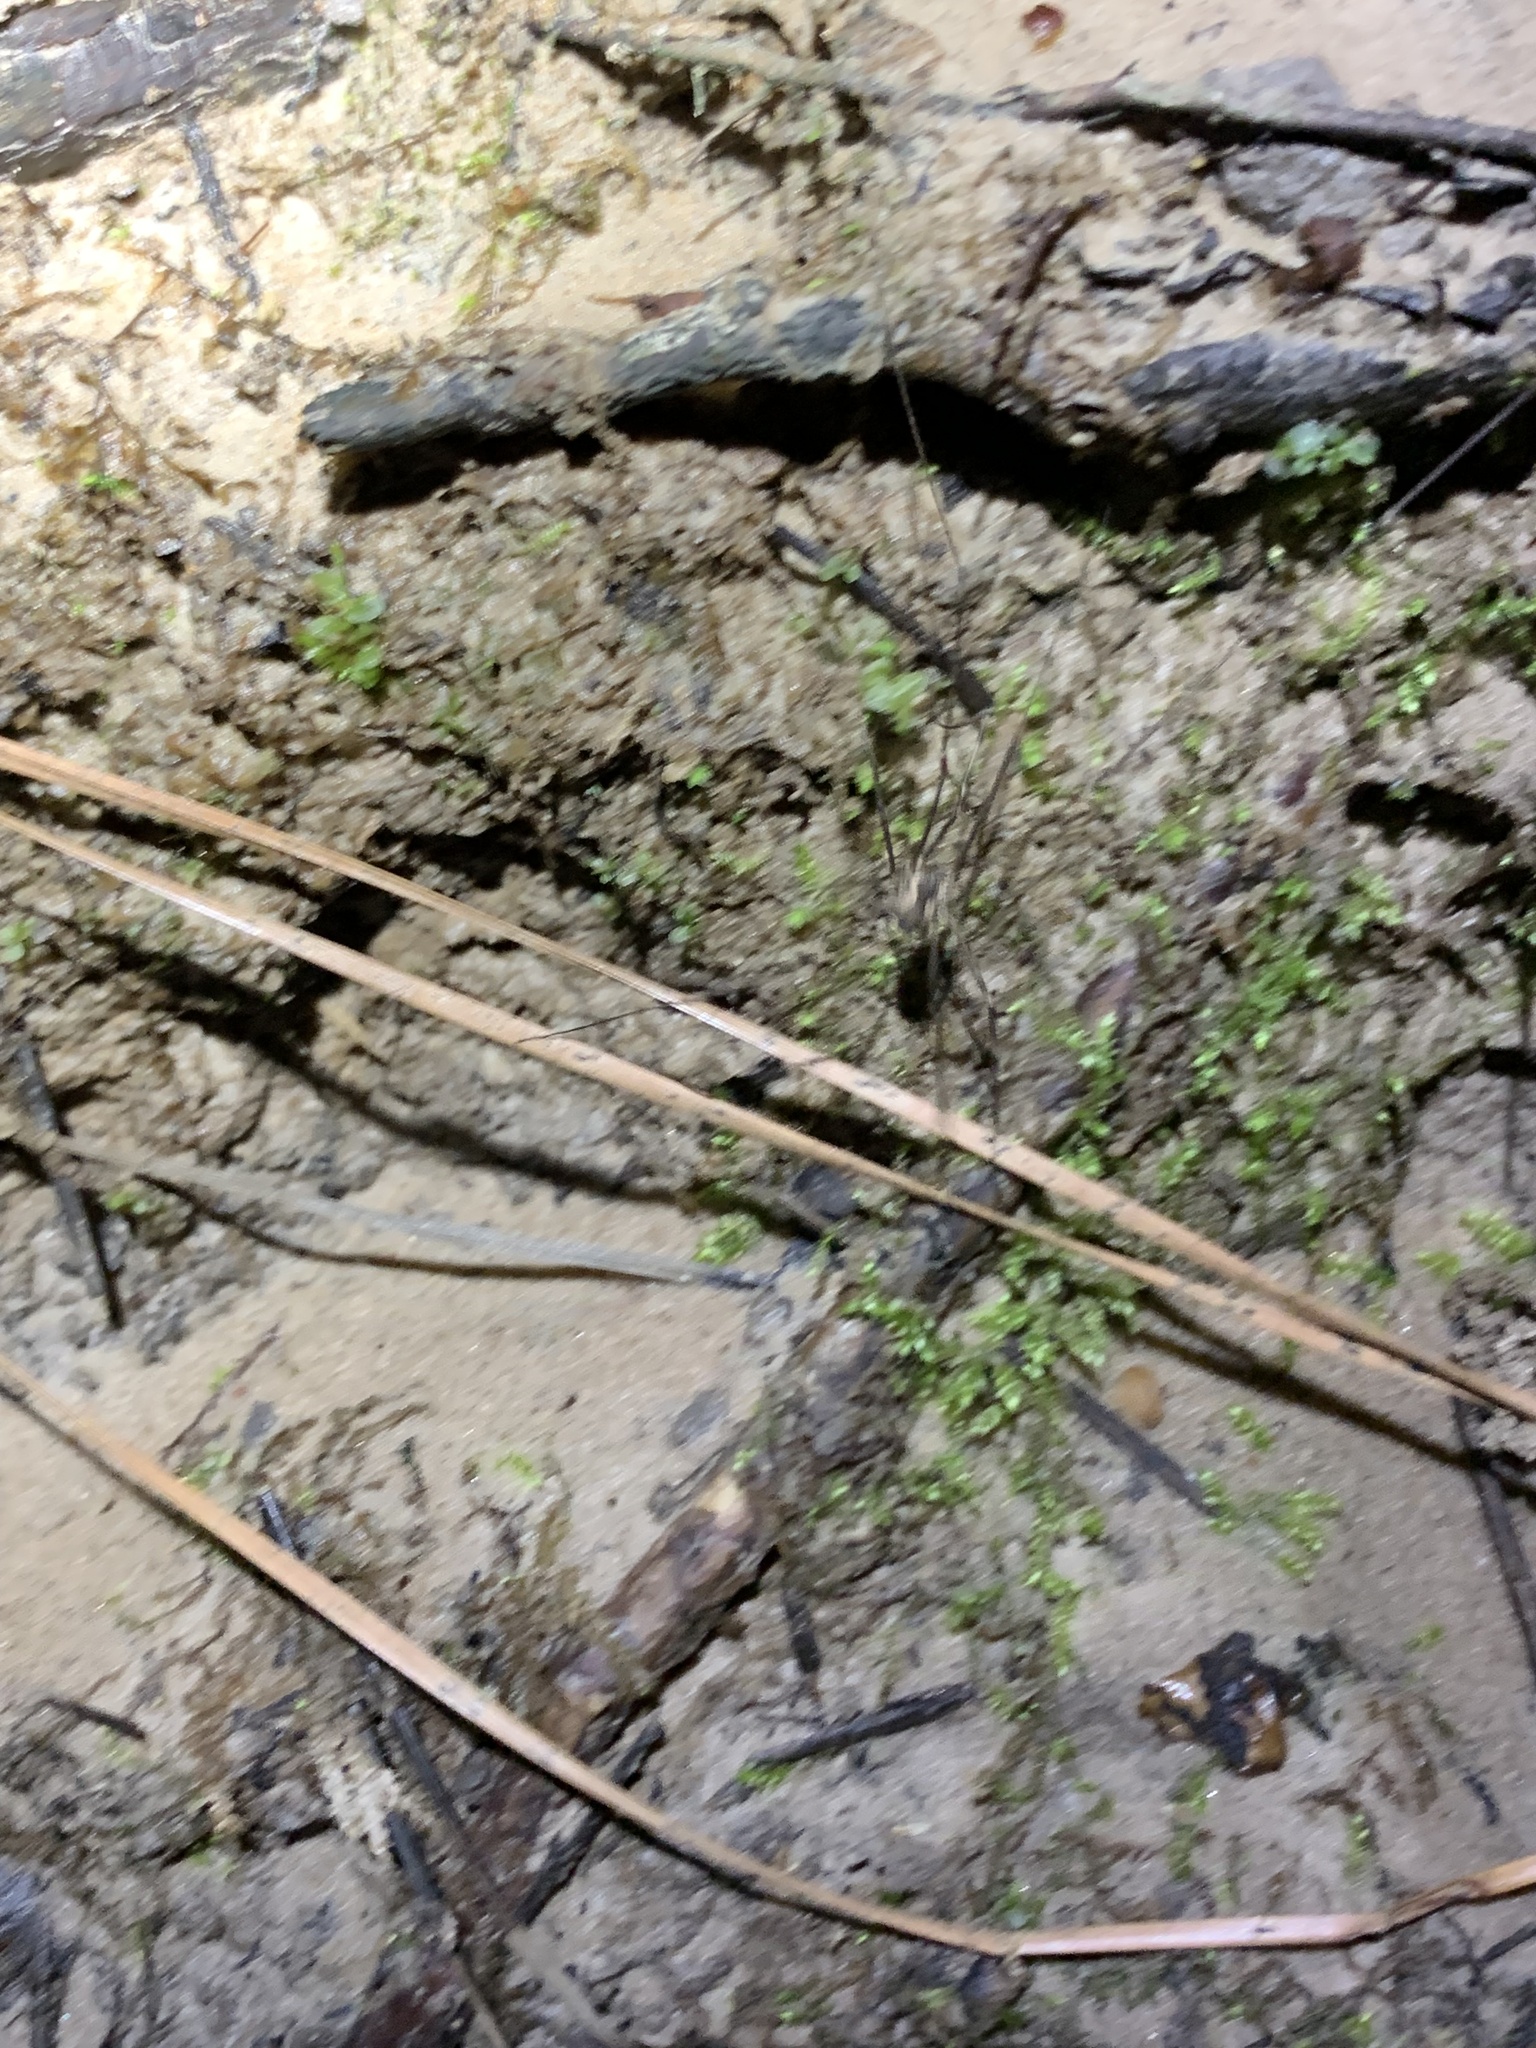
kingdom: Animalia
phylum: Arthropoda
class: Arachnida
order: Opiliones
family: Sclerosomatidae
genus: Leiobunum
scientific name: Leiobunum flavum
